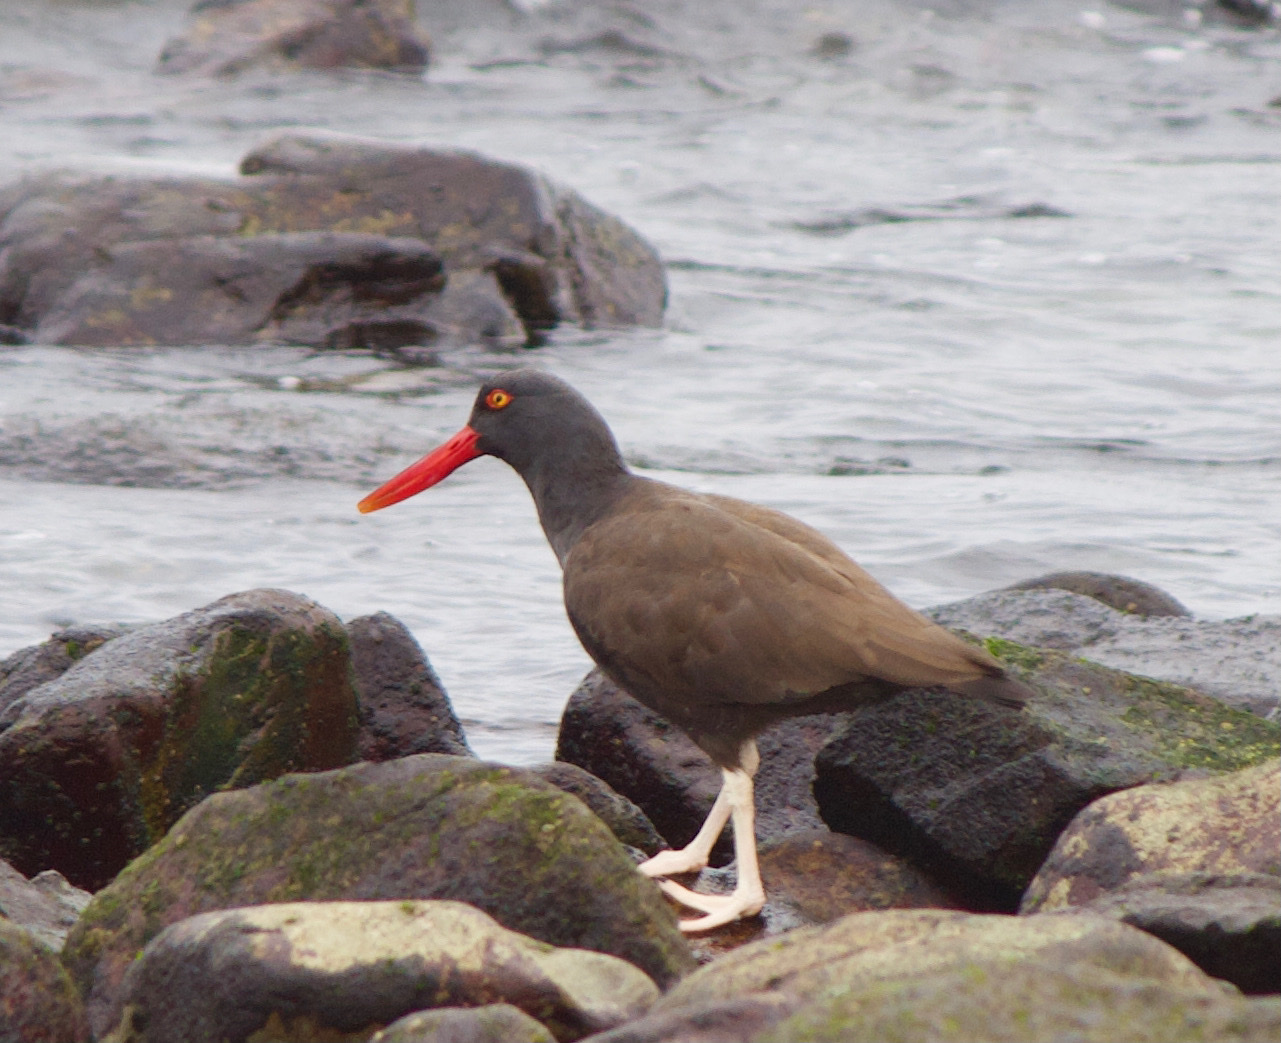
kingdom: Animalia
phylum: Chordata
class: Aves
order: Charadriiformes
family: Haematopodidae
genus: Haematopus
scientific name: Haematopus ater
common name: Blackish oystercatcher
